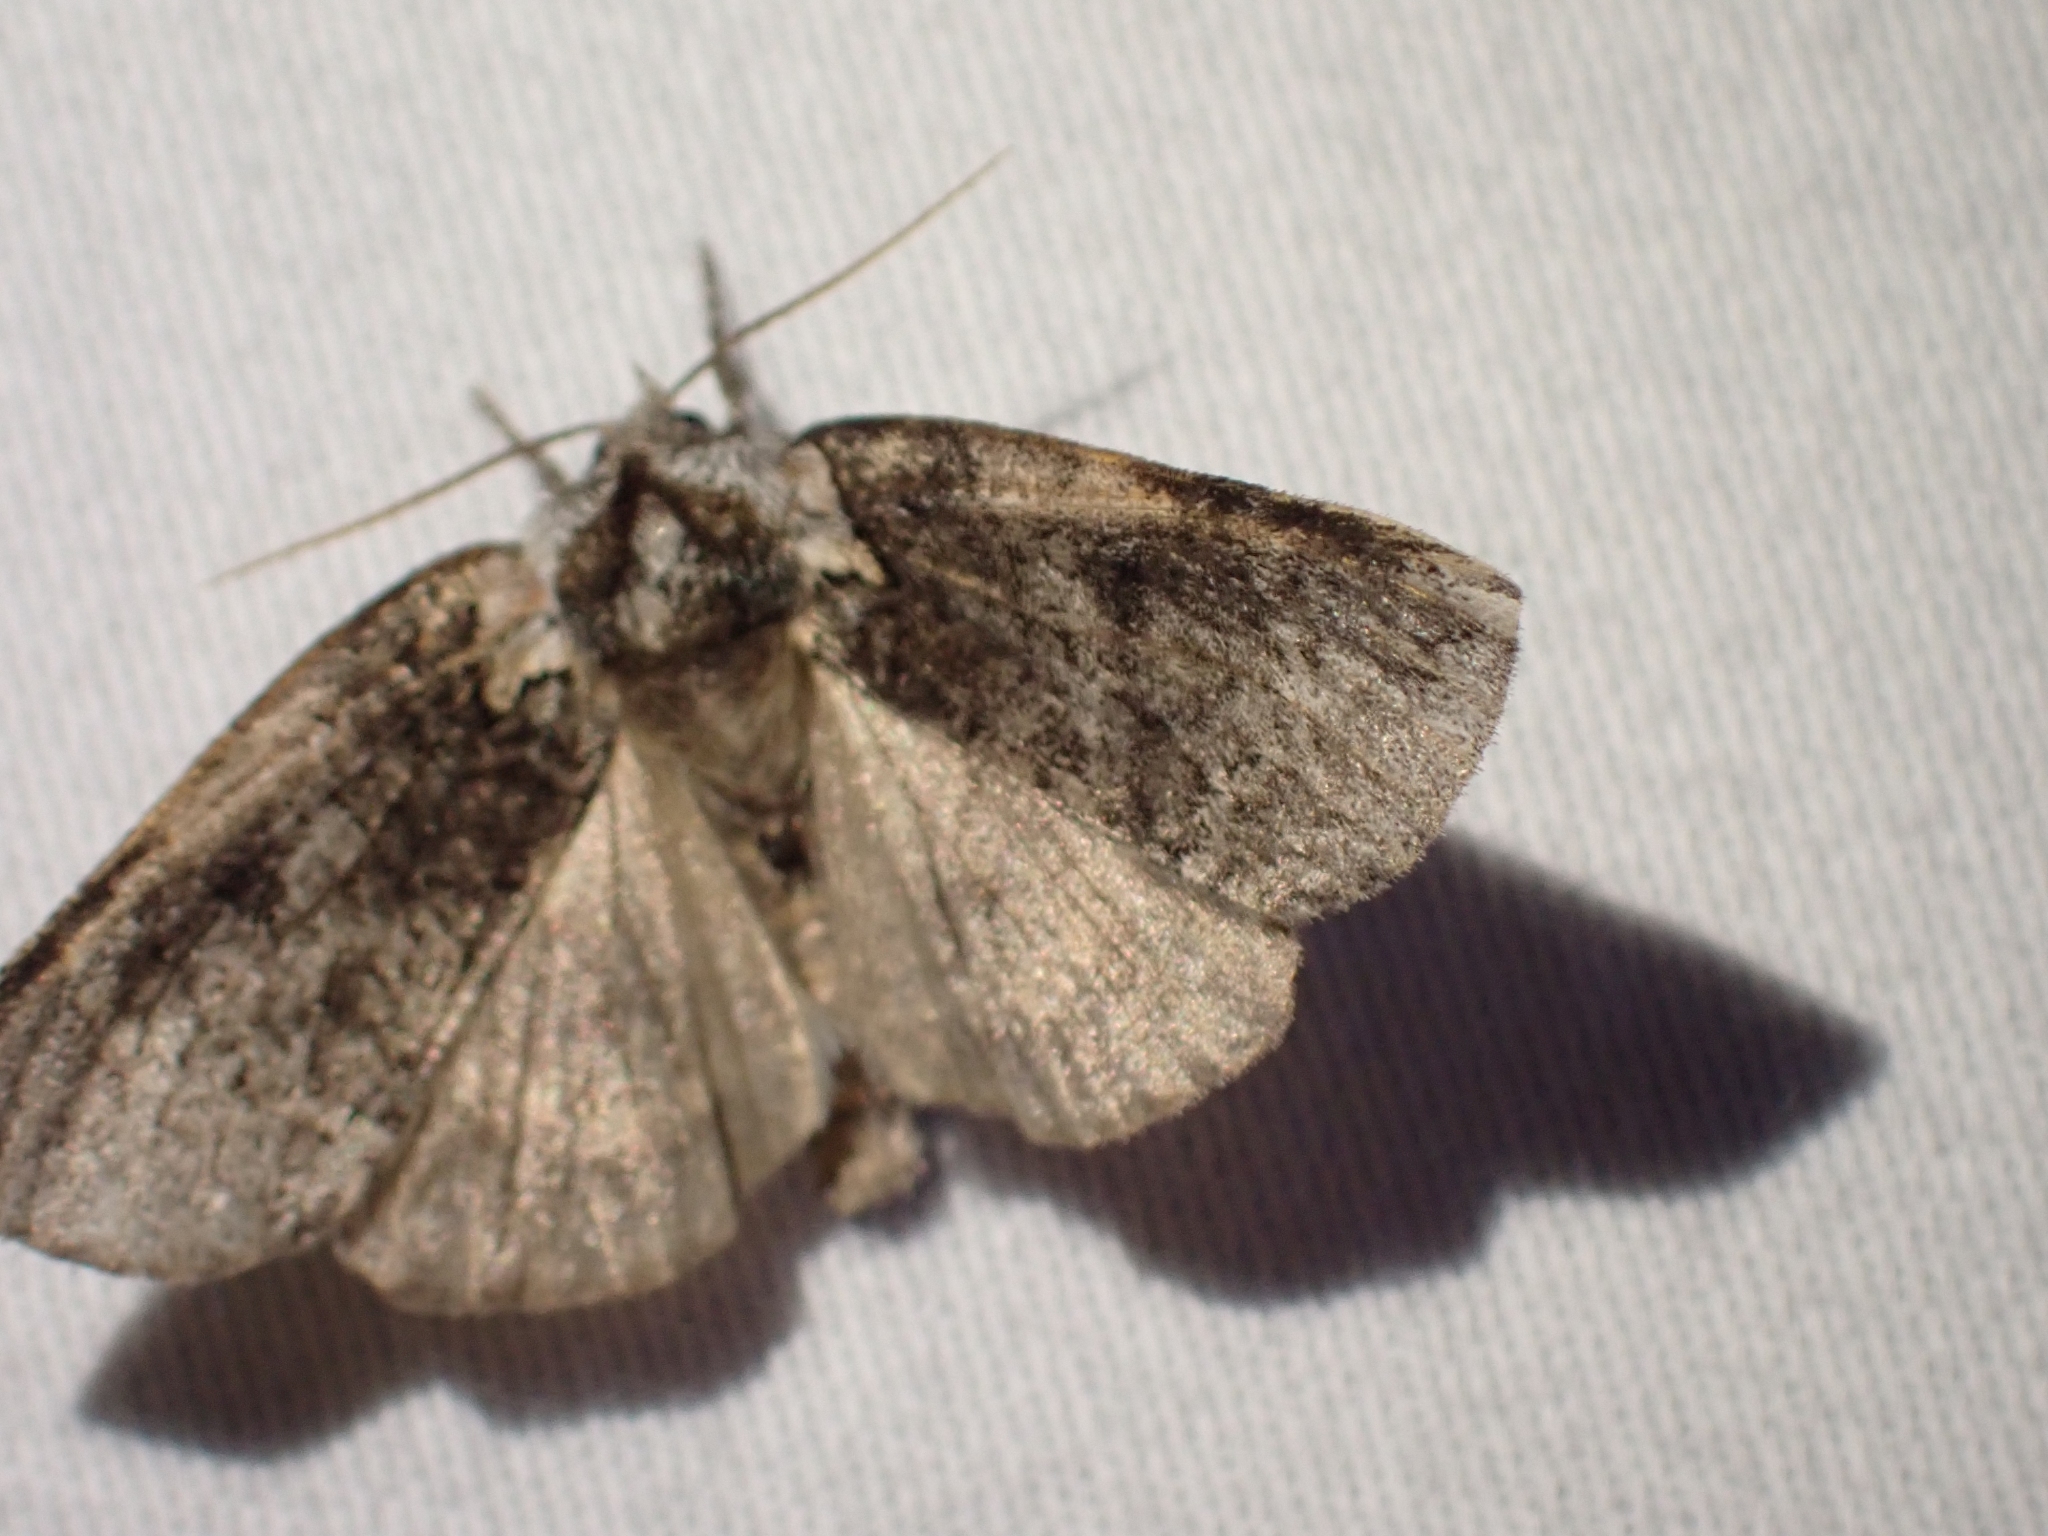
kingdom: Animalia
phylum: Arthropoda
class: Insecta
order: Lepidoptera
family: Drepanidae
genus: Euthyatira
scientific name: Euthyatira semicircularis
